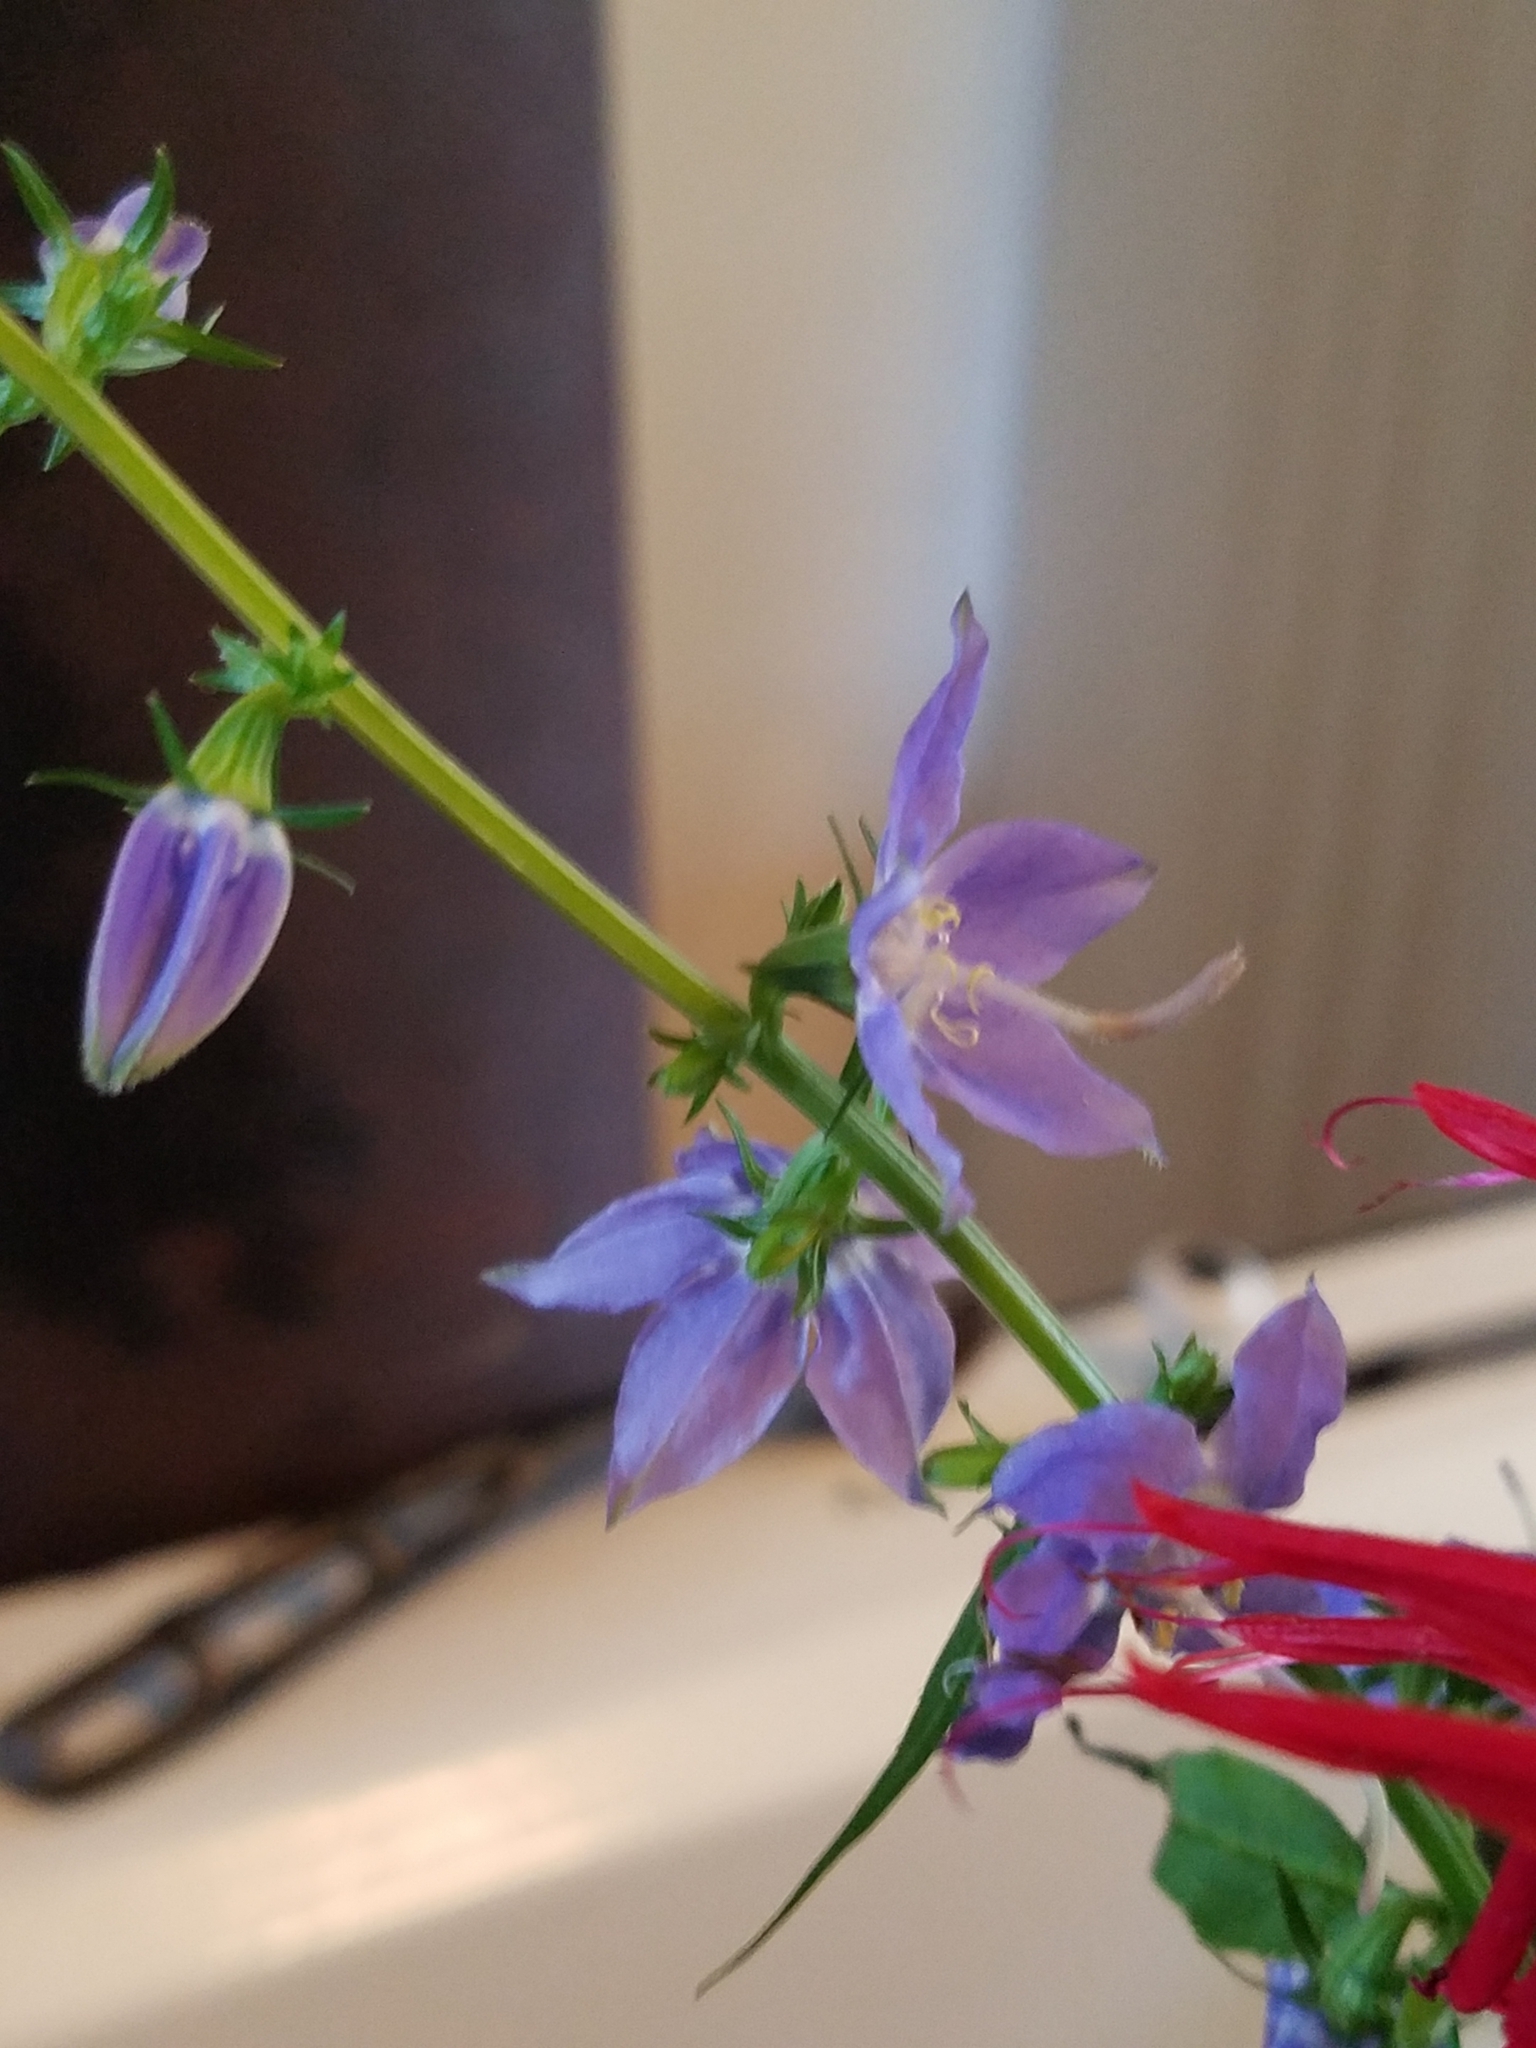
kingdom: Plantae
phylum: Tracheophyta
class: Magnoliopsida
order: Asterales
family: Campanulaceae
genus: Campanulastrum
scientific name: Campanulastrum americanum
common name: American bellflower
